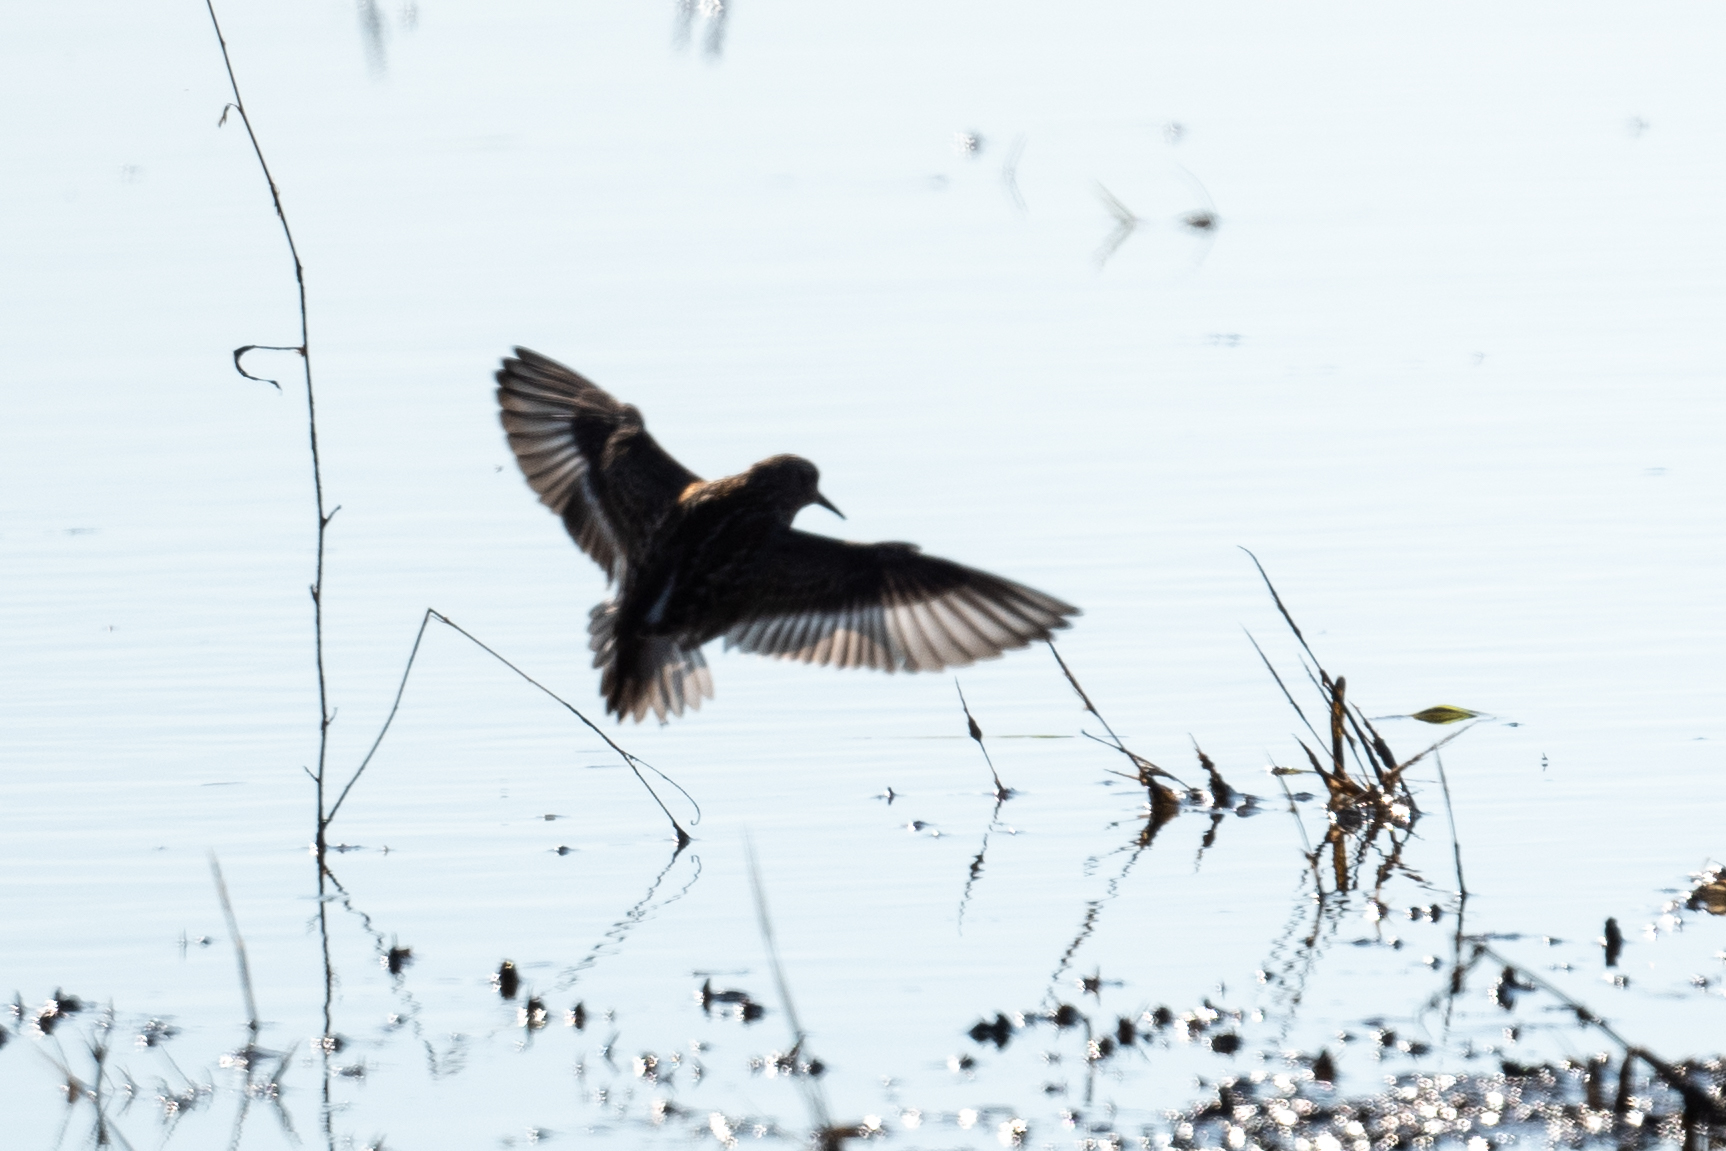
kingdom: Animalia
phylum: Chordata
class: Aves
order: Charadriiformes
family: Scolopacidae
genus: Calidris
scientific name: Calidris
